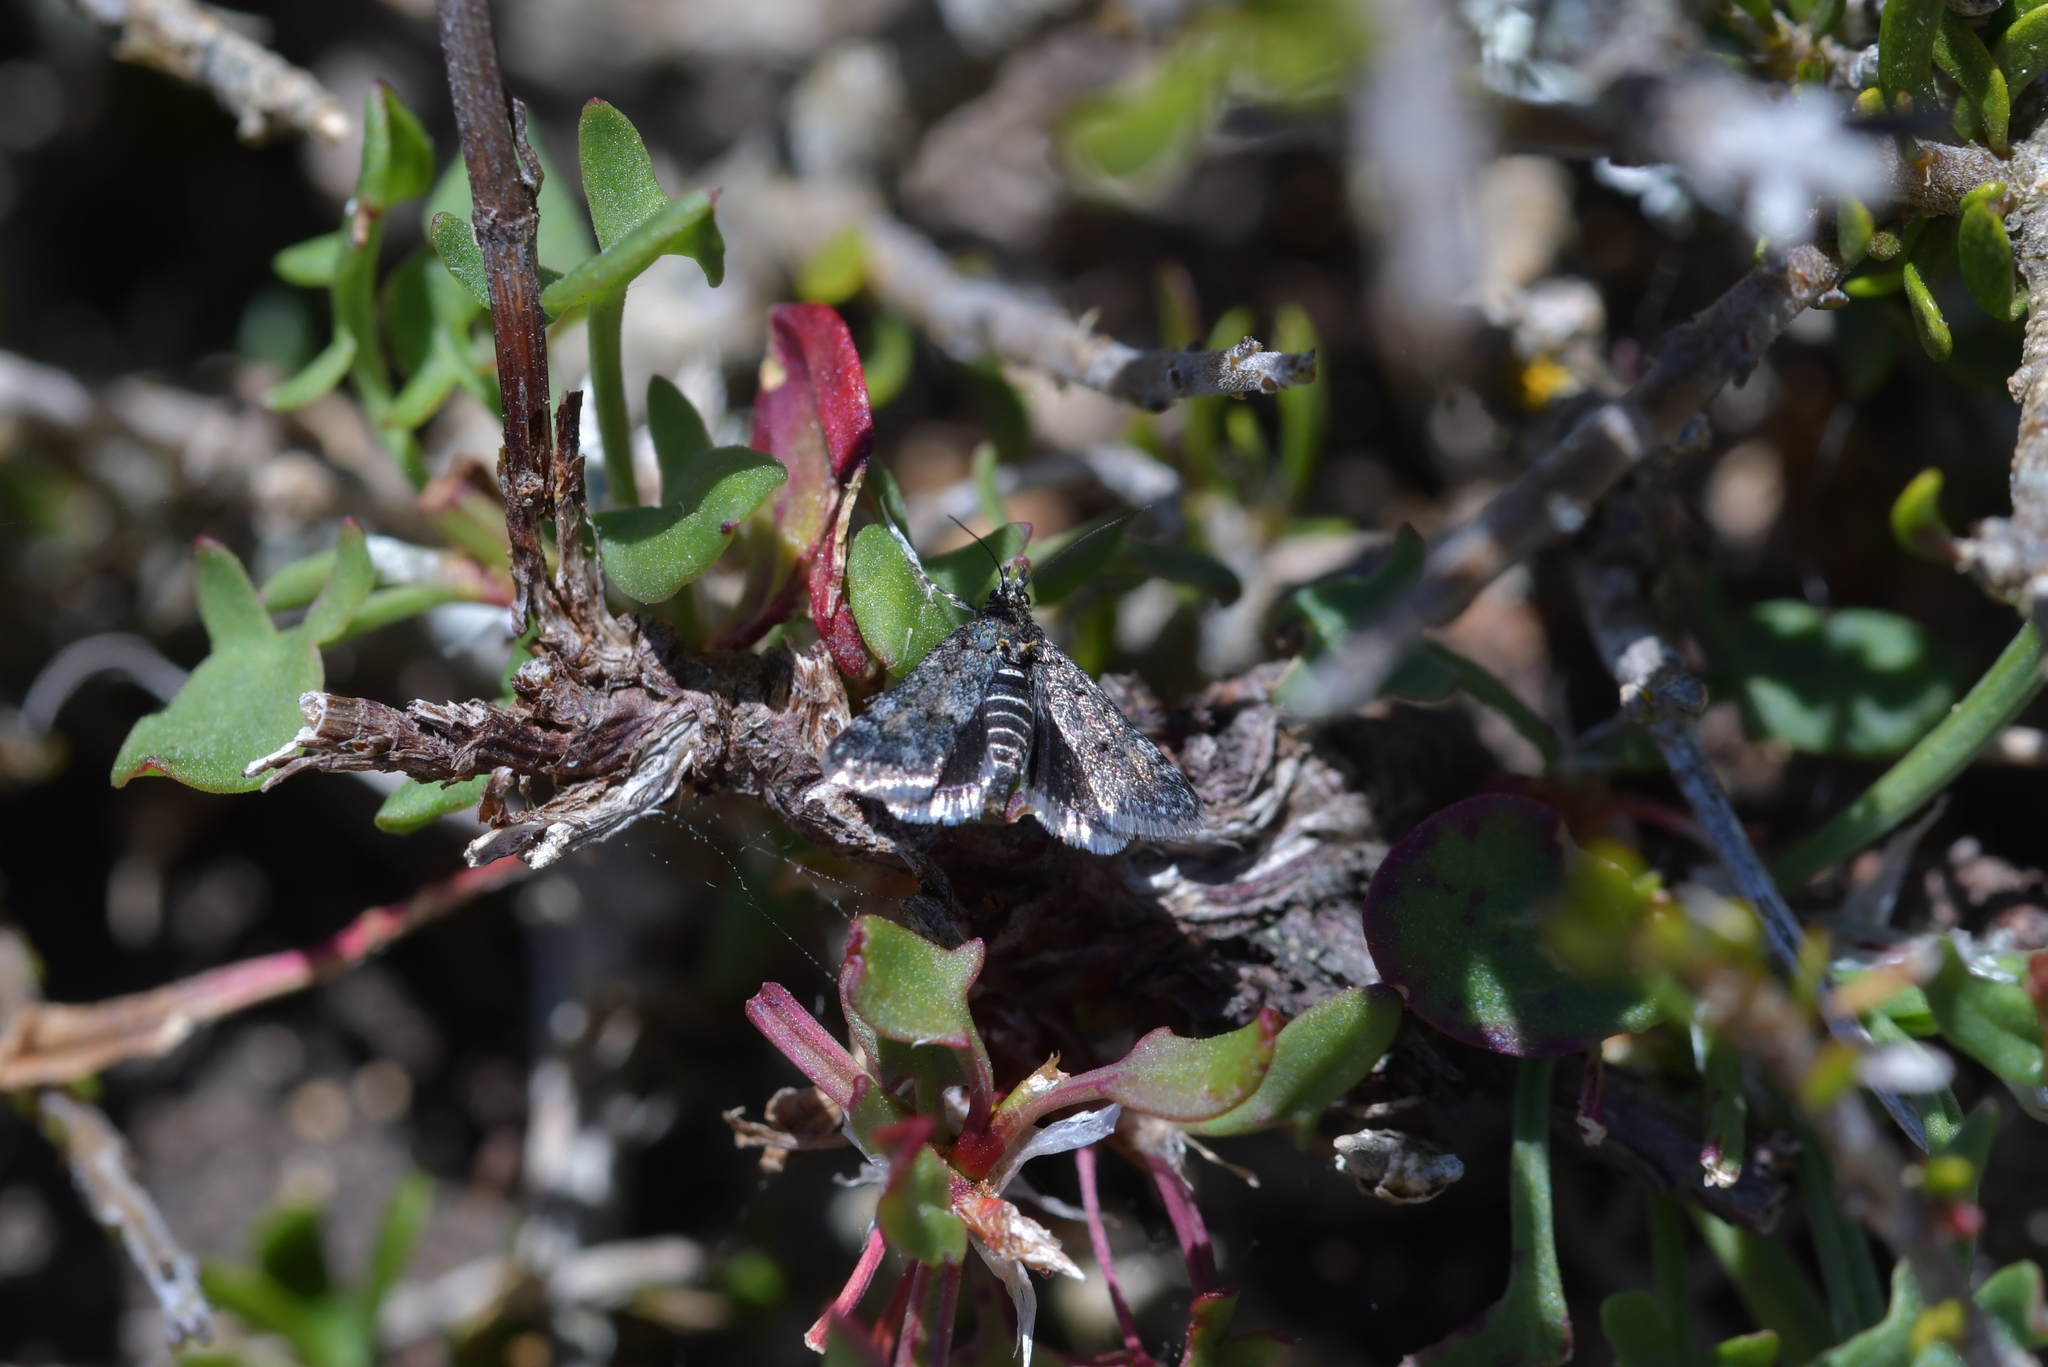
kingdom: Animalia
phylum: Arthropoda
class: Insecta
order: Lepidoptera
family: Crambidae
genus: Heliothela
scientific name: Heliothela atra
